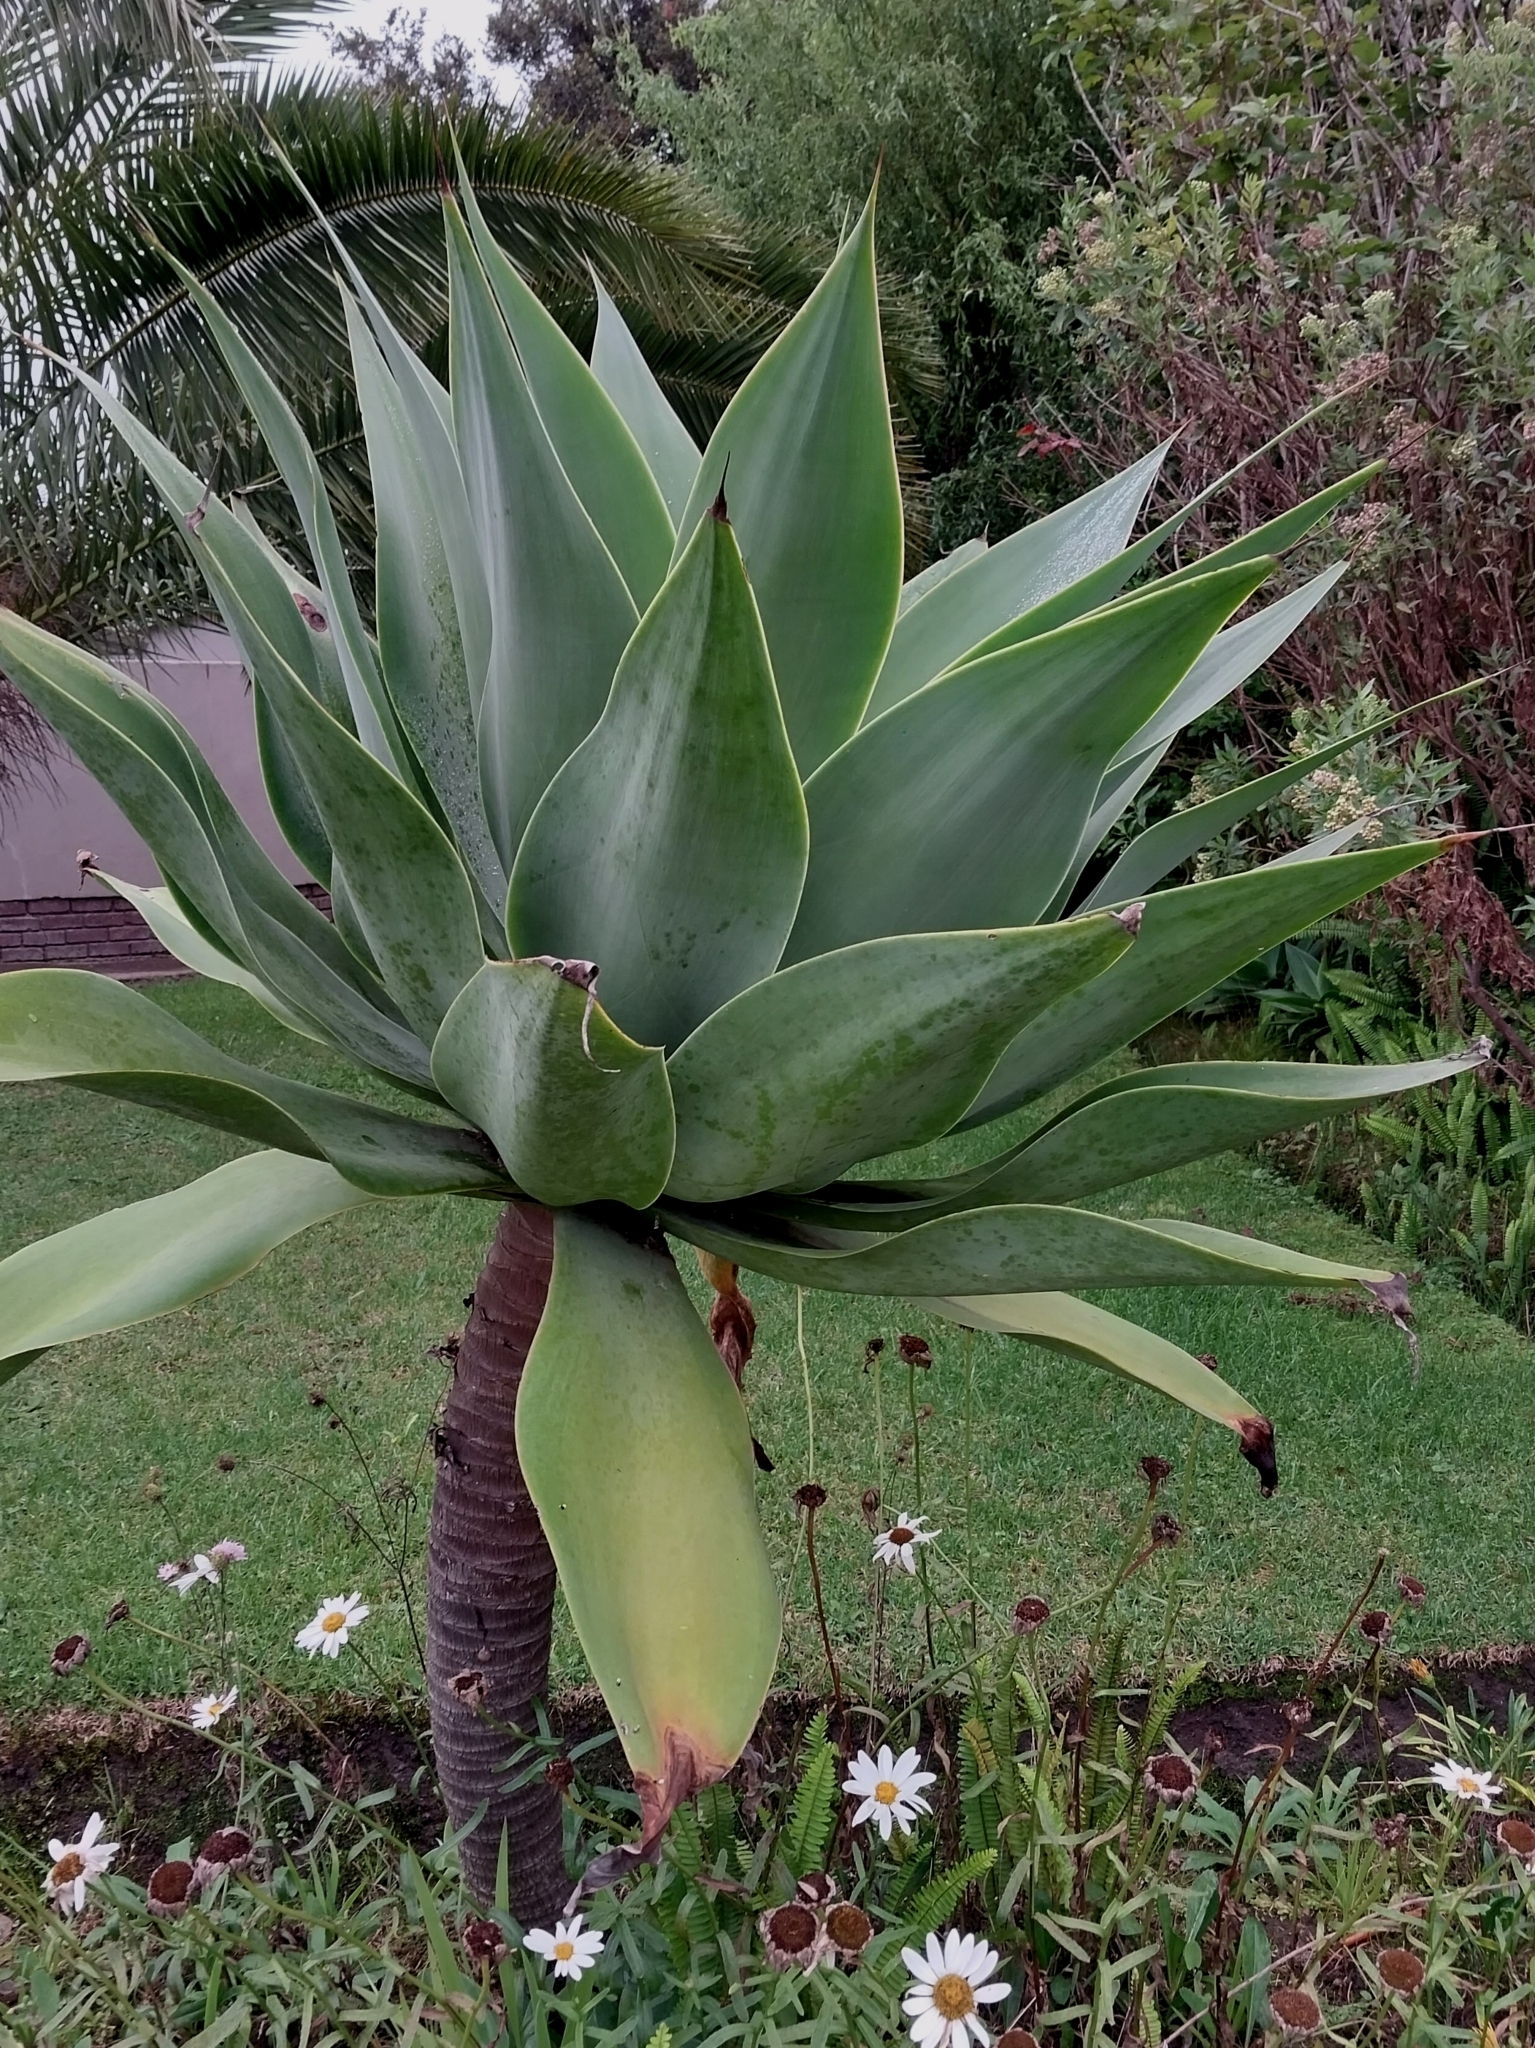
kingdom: Plantae
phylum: Tracheophyta
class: Liliopsida
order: Asparagales
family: Asparagaceae
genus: Agave
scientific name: Agave attenuata
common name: Fox tail agave
